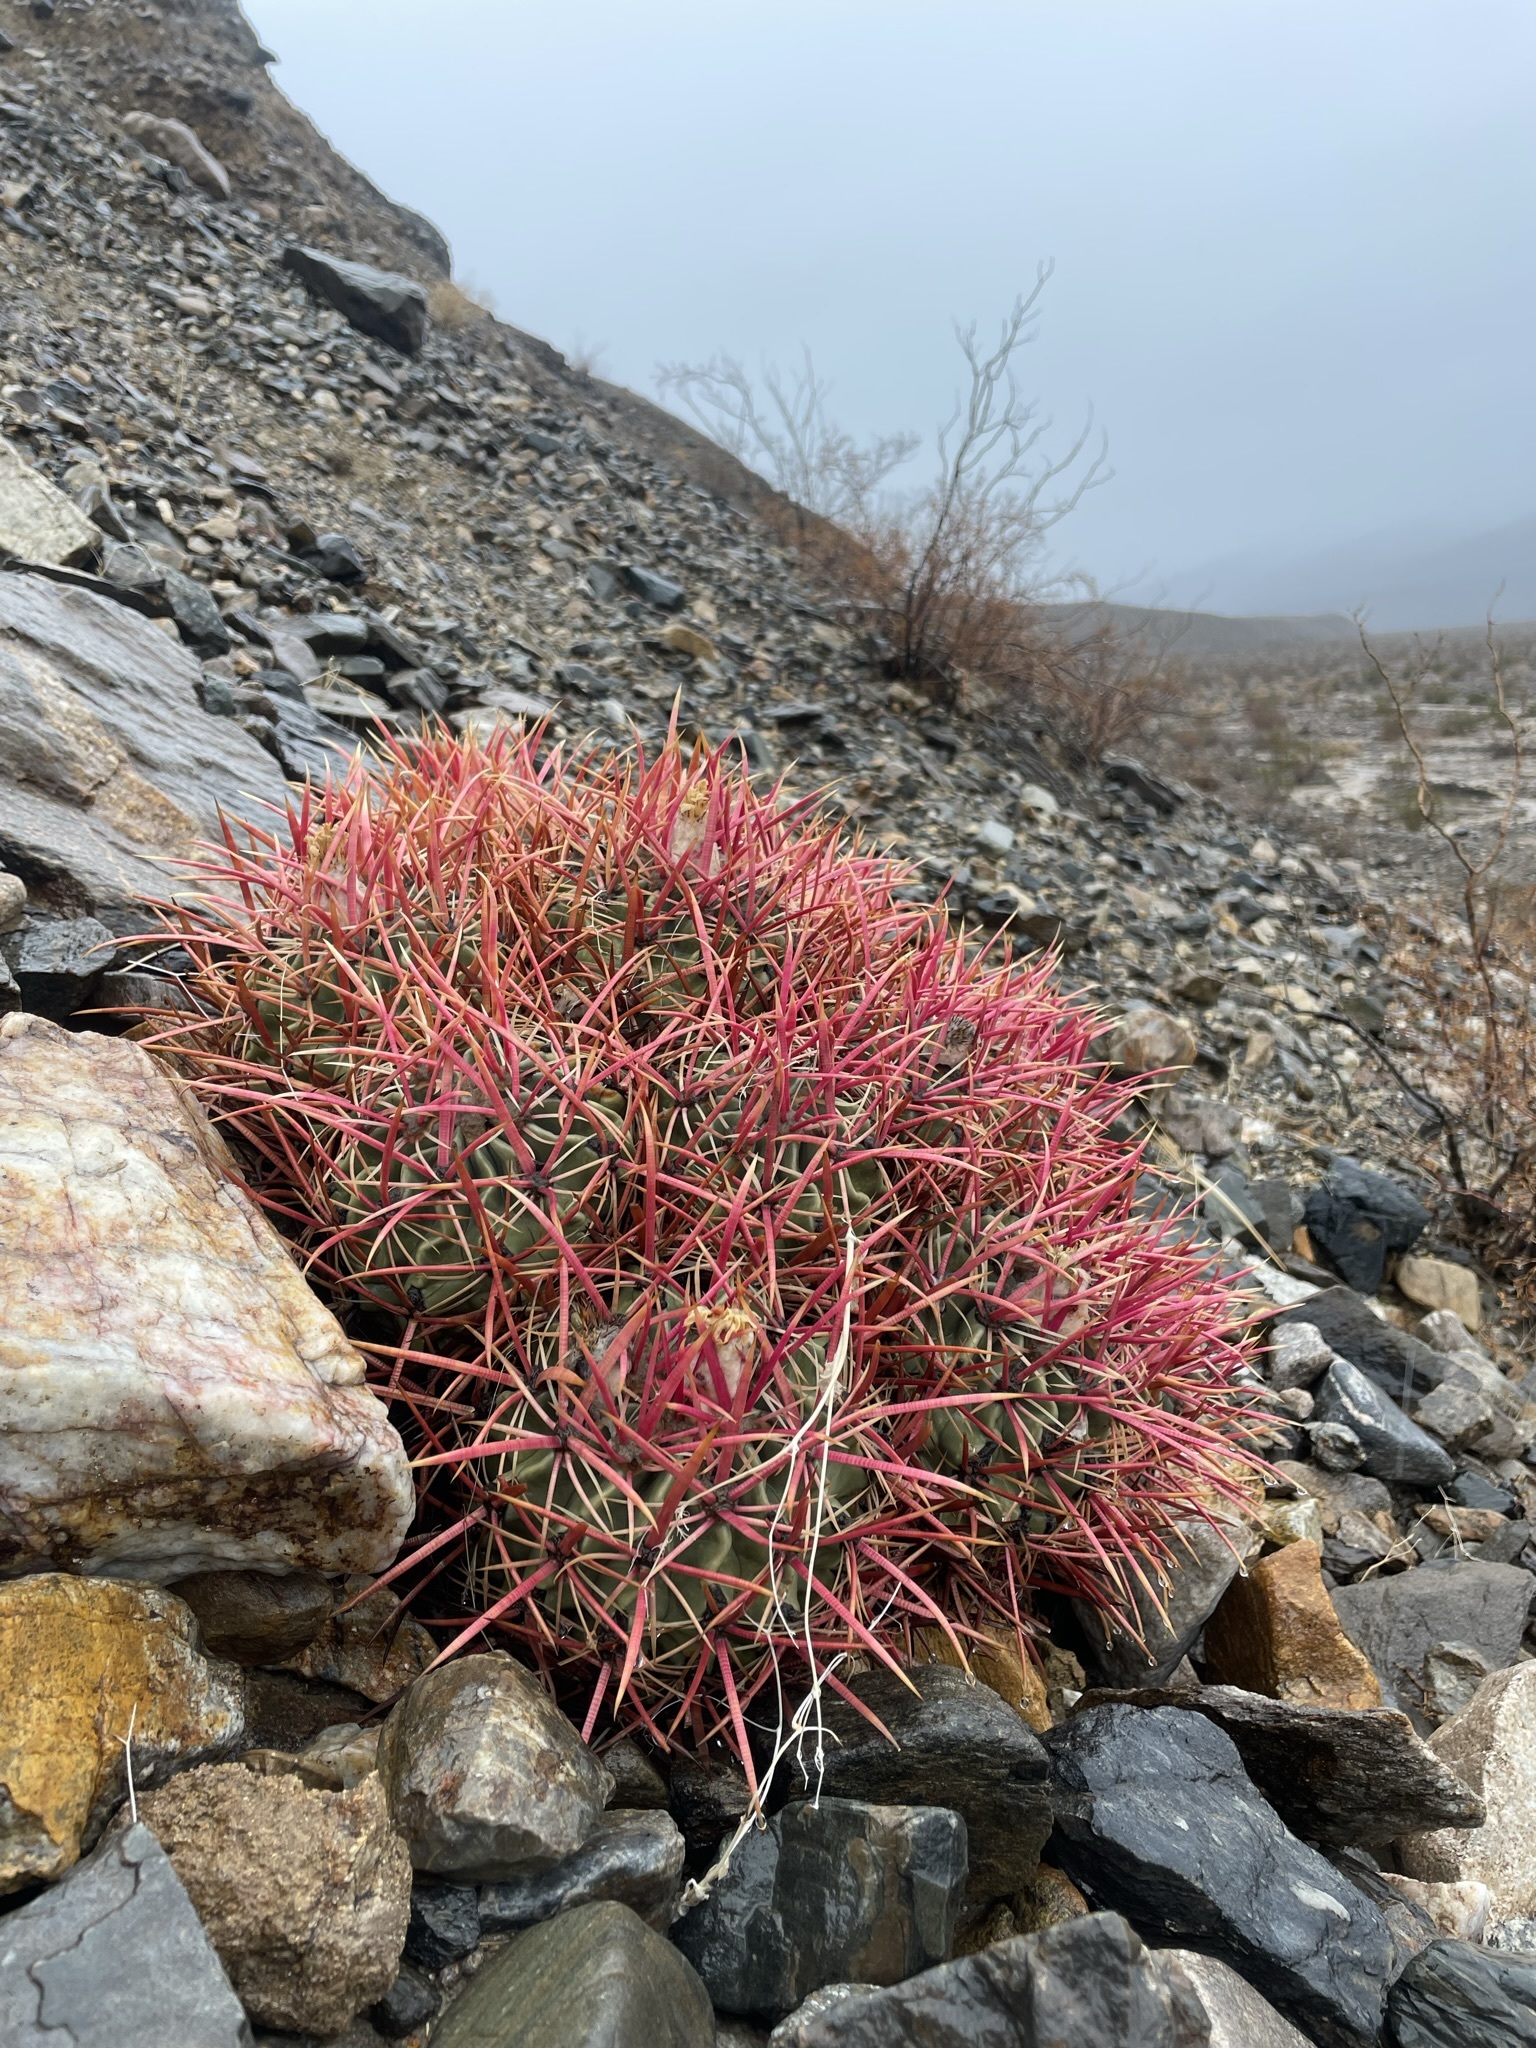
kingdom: Plantae
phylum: Tracheophyta
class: Magnoliopsida
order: Caryophyllales
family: Cactaceae
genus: Echinocactus
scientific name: Echinocactus polycephalus
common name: Cottontop cactus
